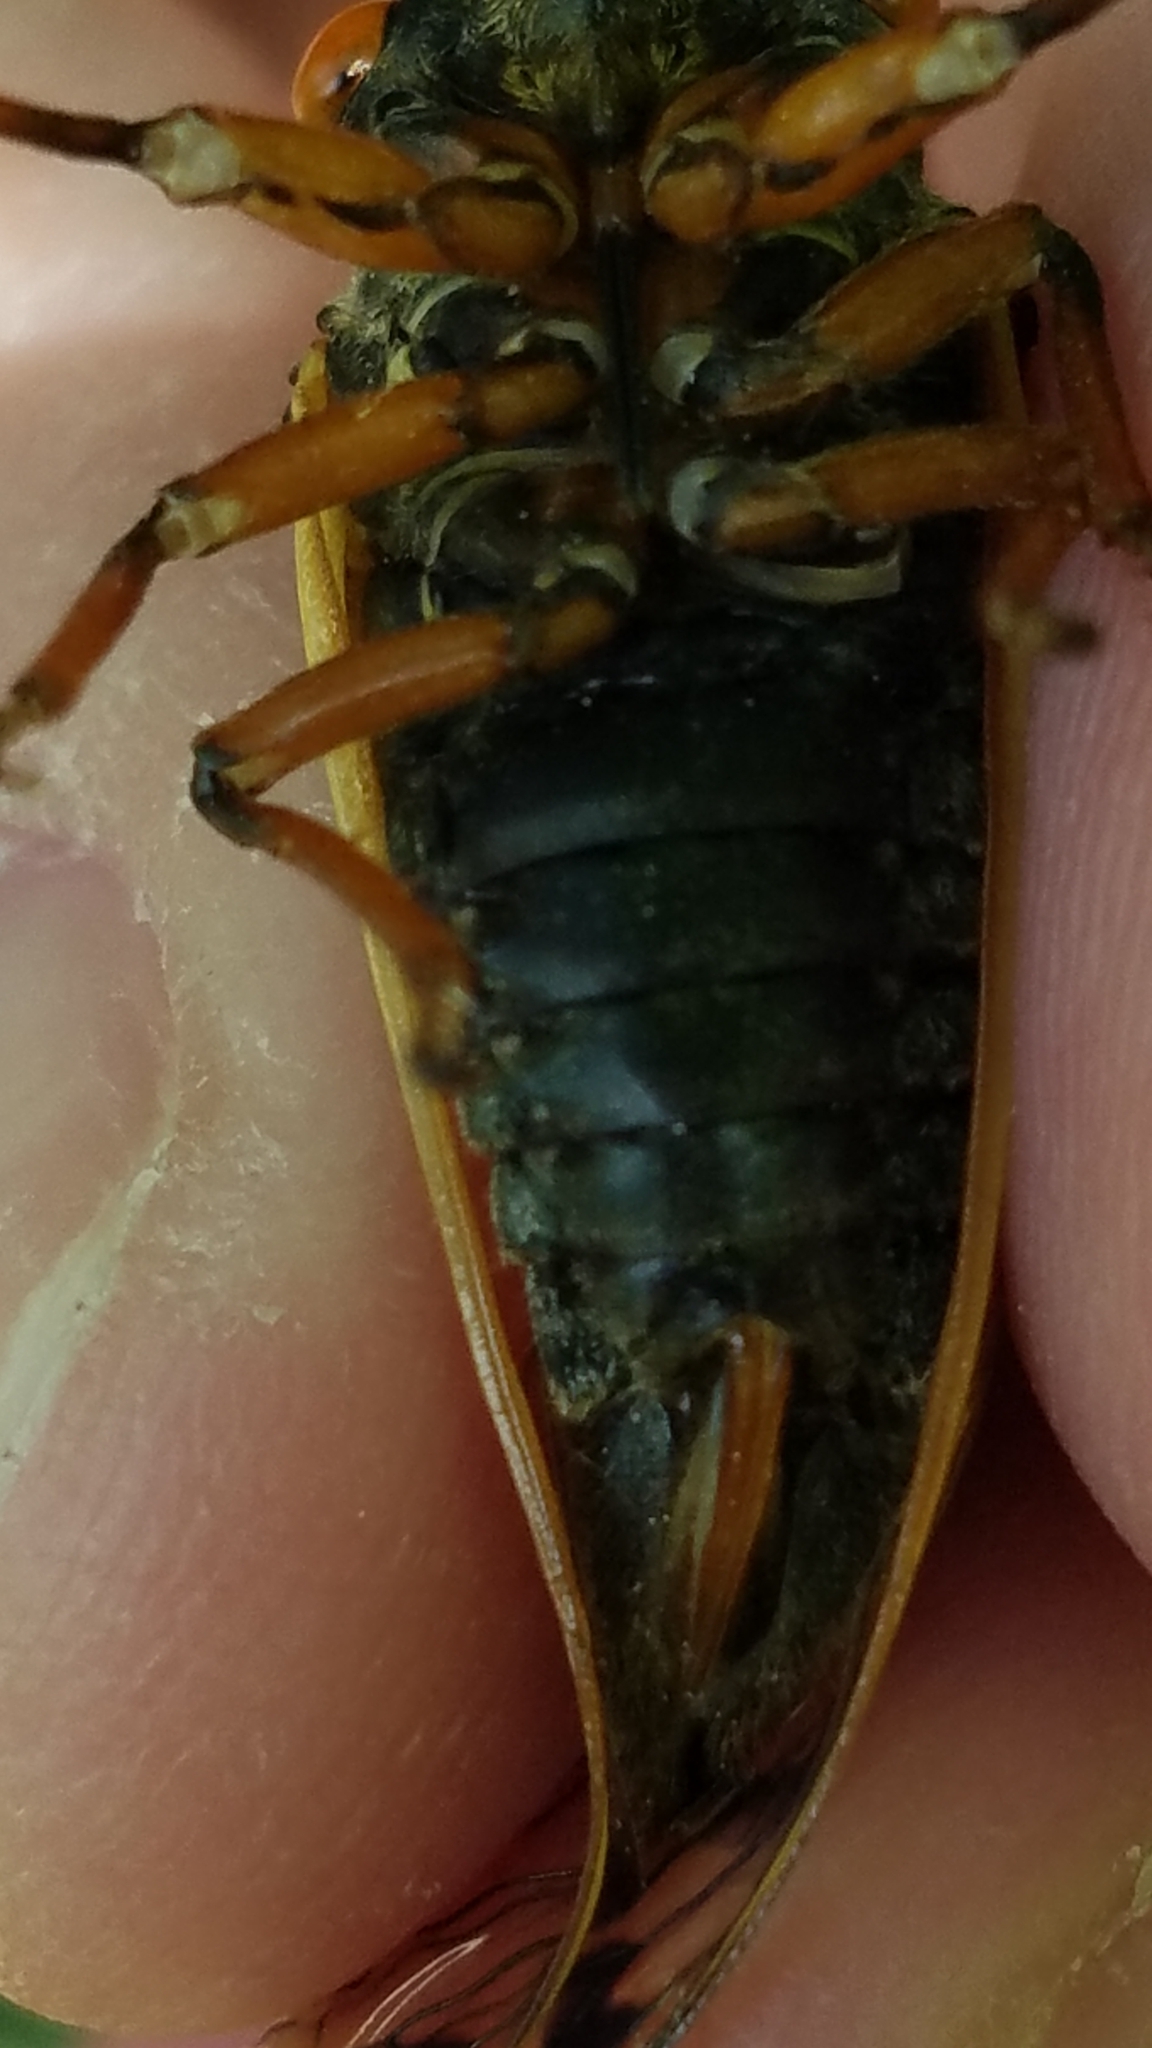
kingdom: Animalia
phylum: Arthropoda
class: Insecta
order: Hemiptera
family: Cicadidae
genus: Magicicada
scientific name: Magicicada cassini
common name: Cassin's 17-year cicada
